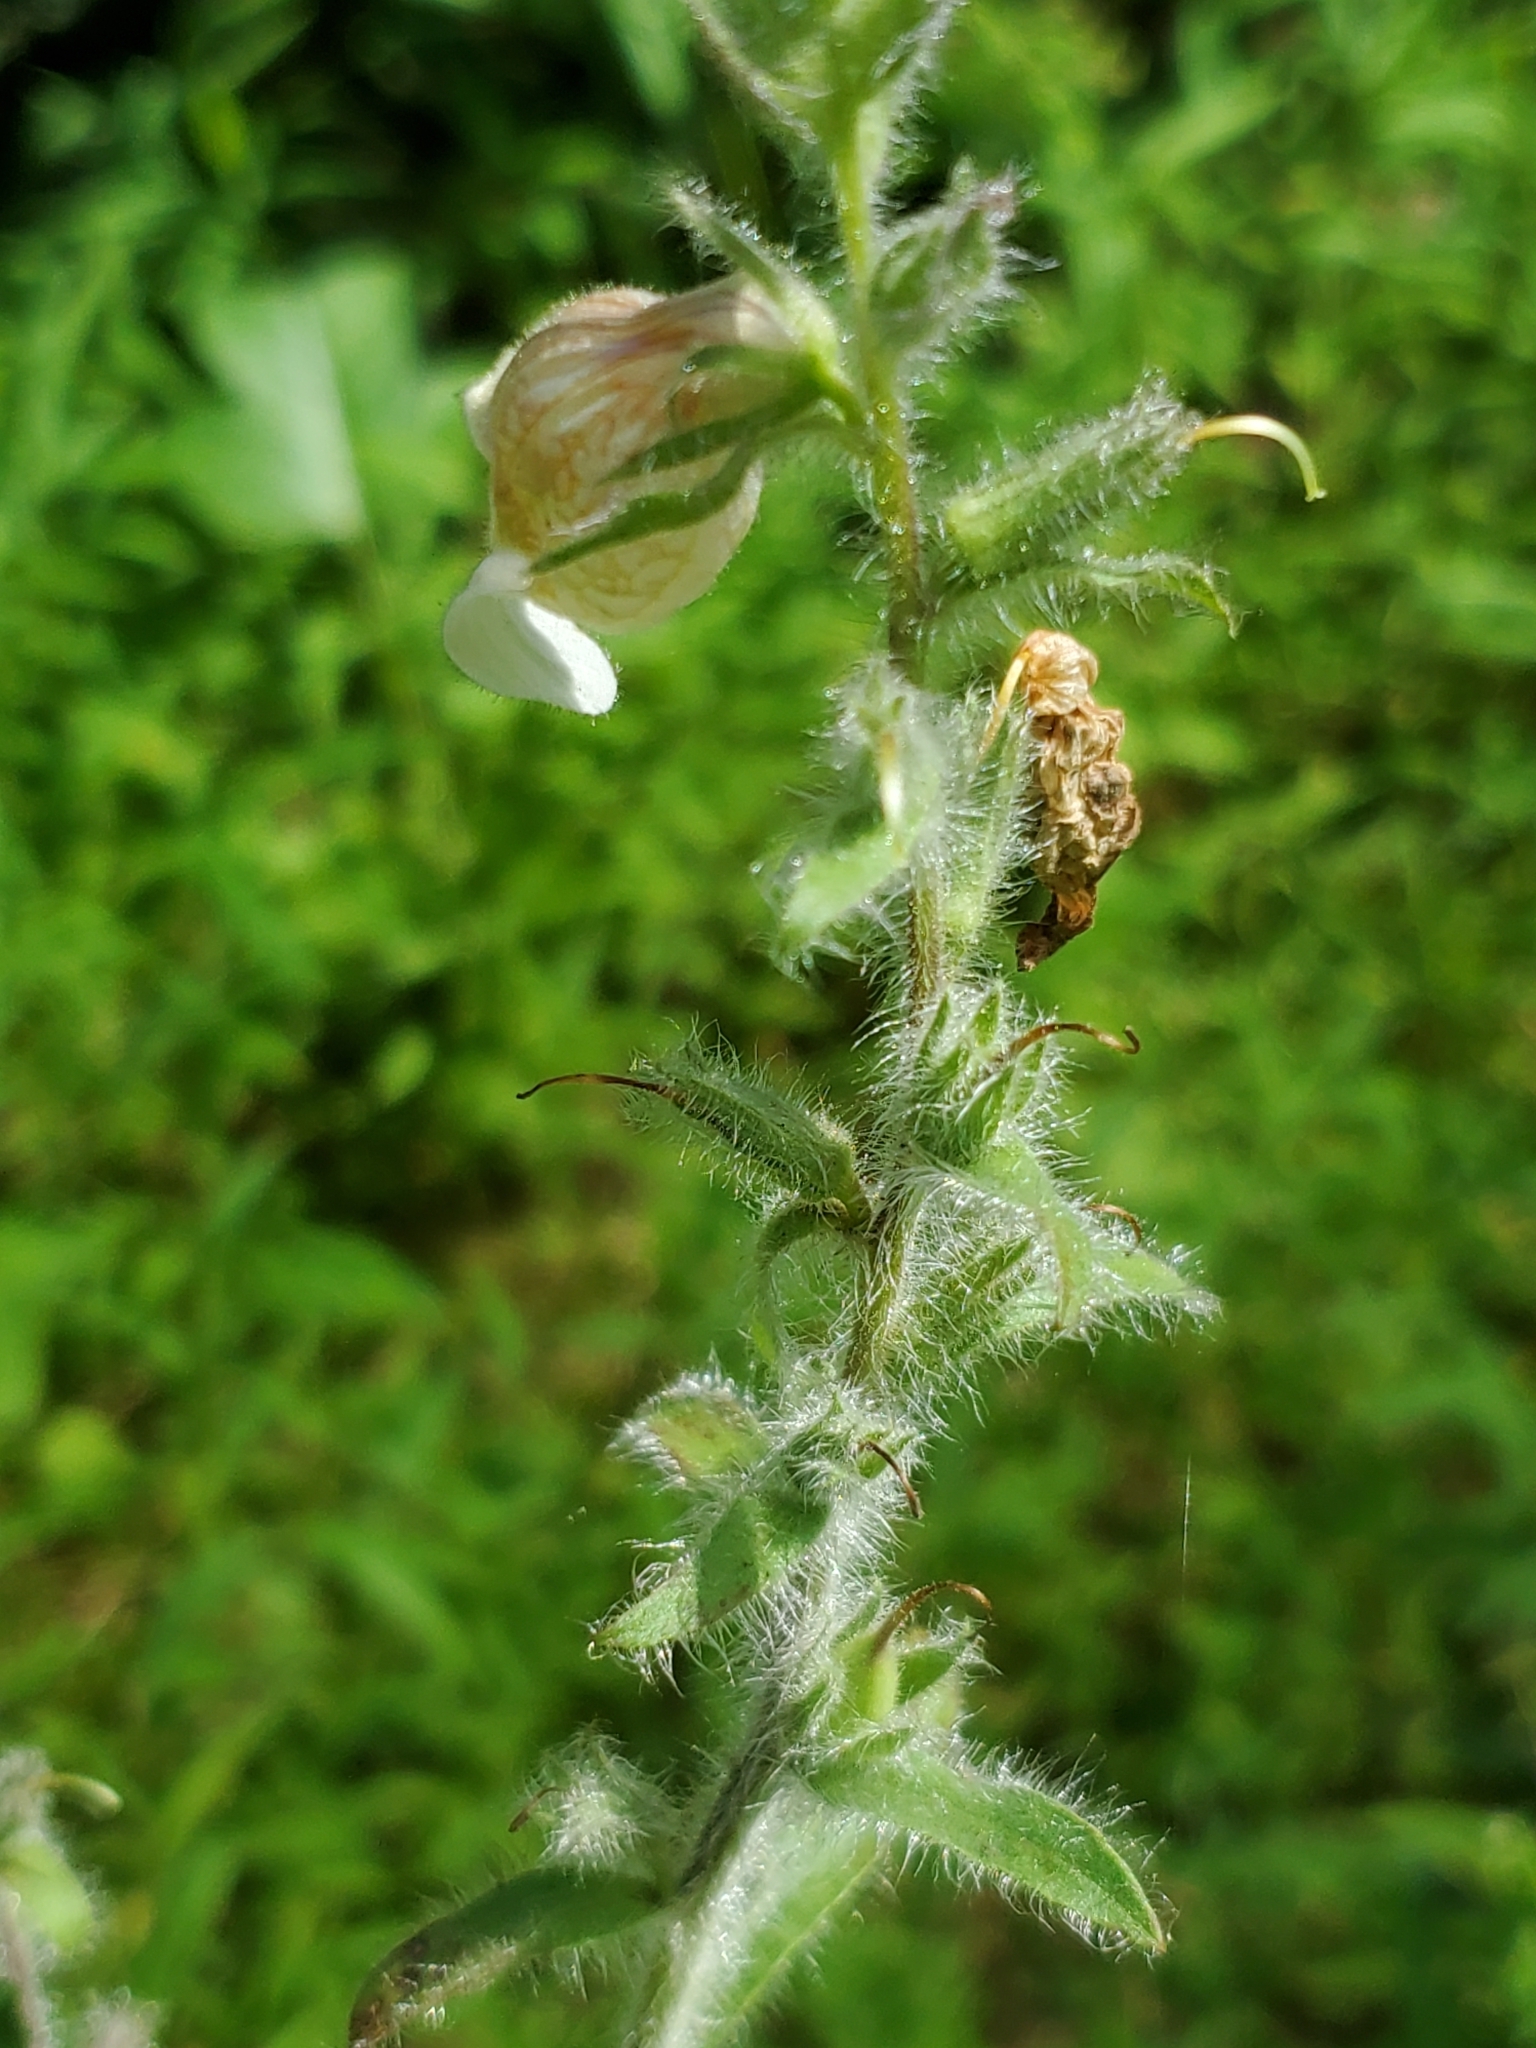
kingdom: Plantae
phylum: Tracheophyta
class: Magnoliopsida
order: Lamiales
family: Plantaginaceae
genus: Digitalis
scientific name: Digitalis lanata
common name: Grecian foxglove
